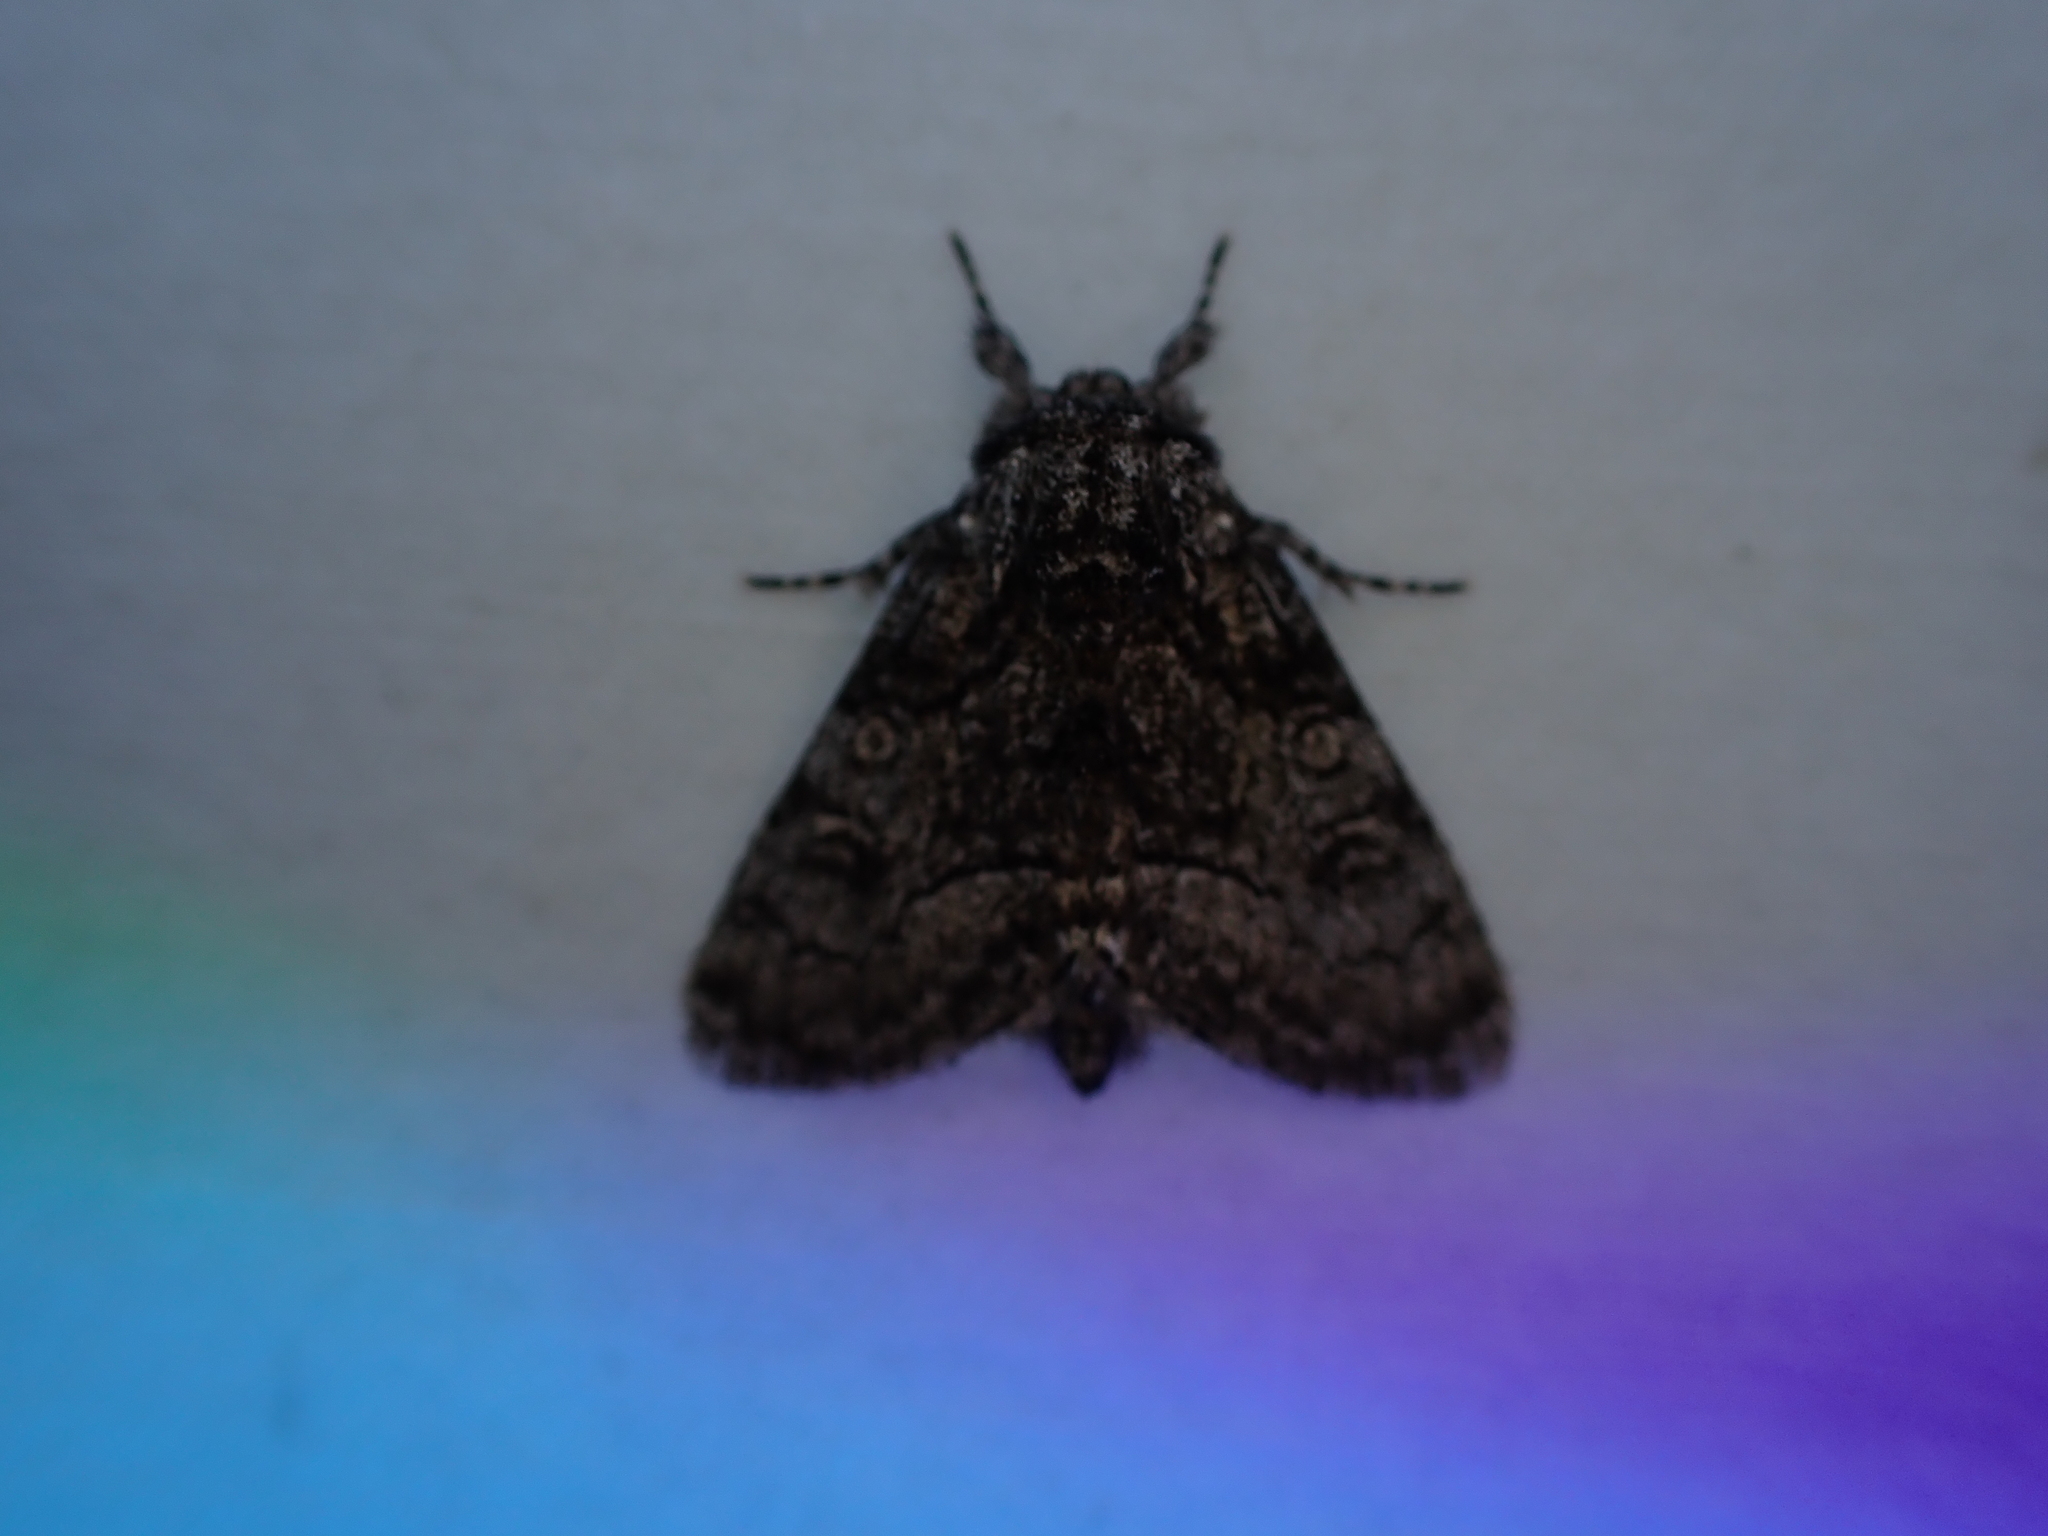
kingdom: Animalia
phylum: Arthropoda
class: Insecta
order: Lepidoptera
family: Noctuidae
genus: Raphia
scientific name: Raphia frater
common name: Brother
